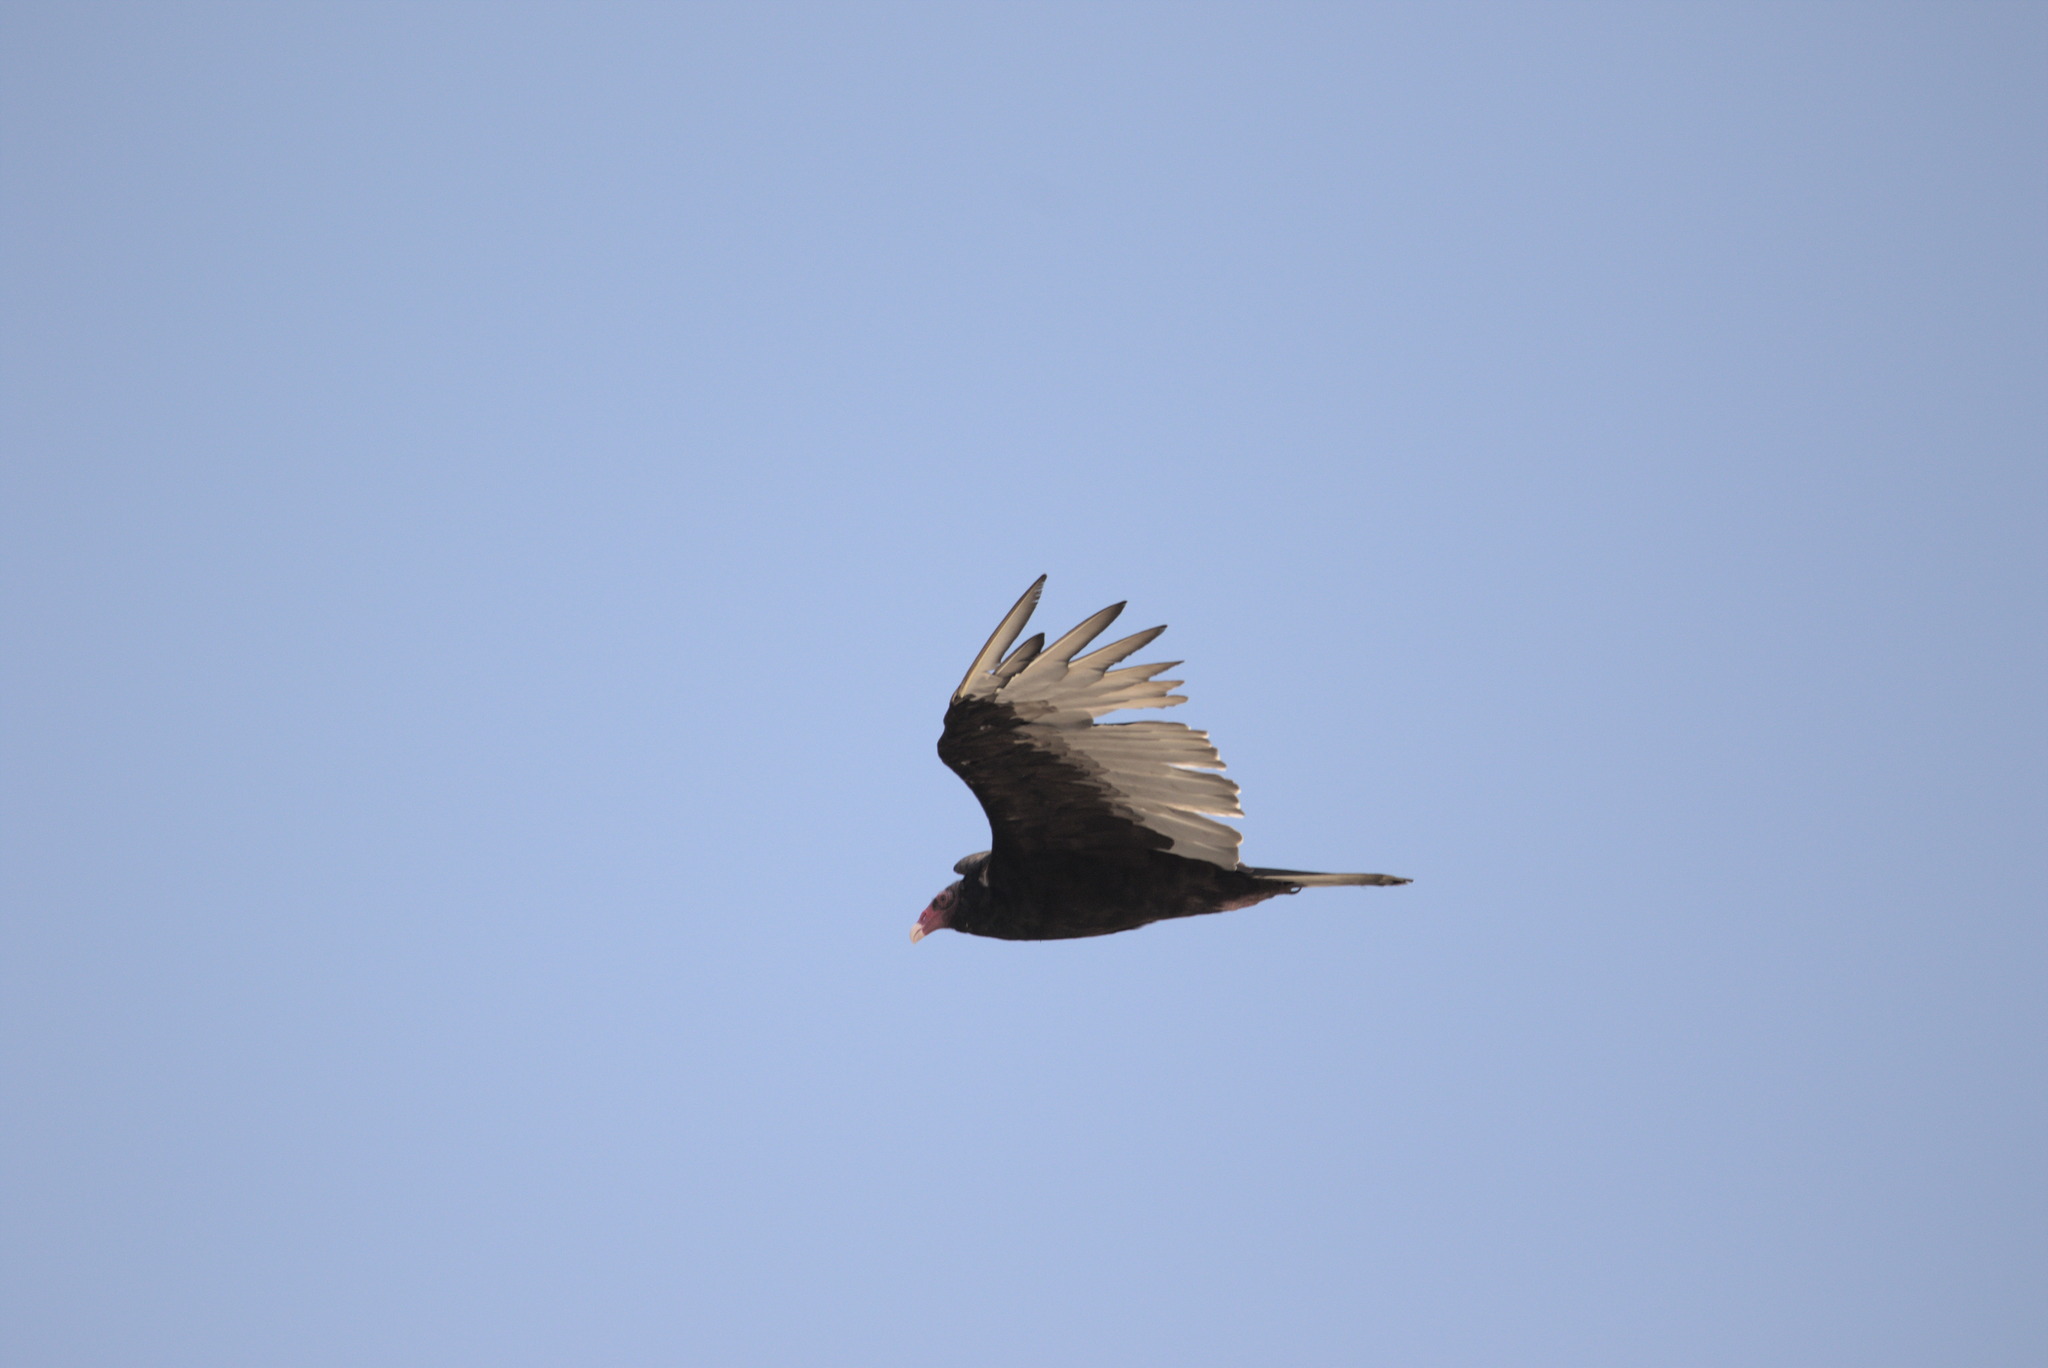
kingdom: Animalia
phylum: Chordata
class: Aves
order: Accipitriformes
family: Cathartidae
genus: Cathartes
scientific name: Cathartes aura
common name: Turkey vulture
